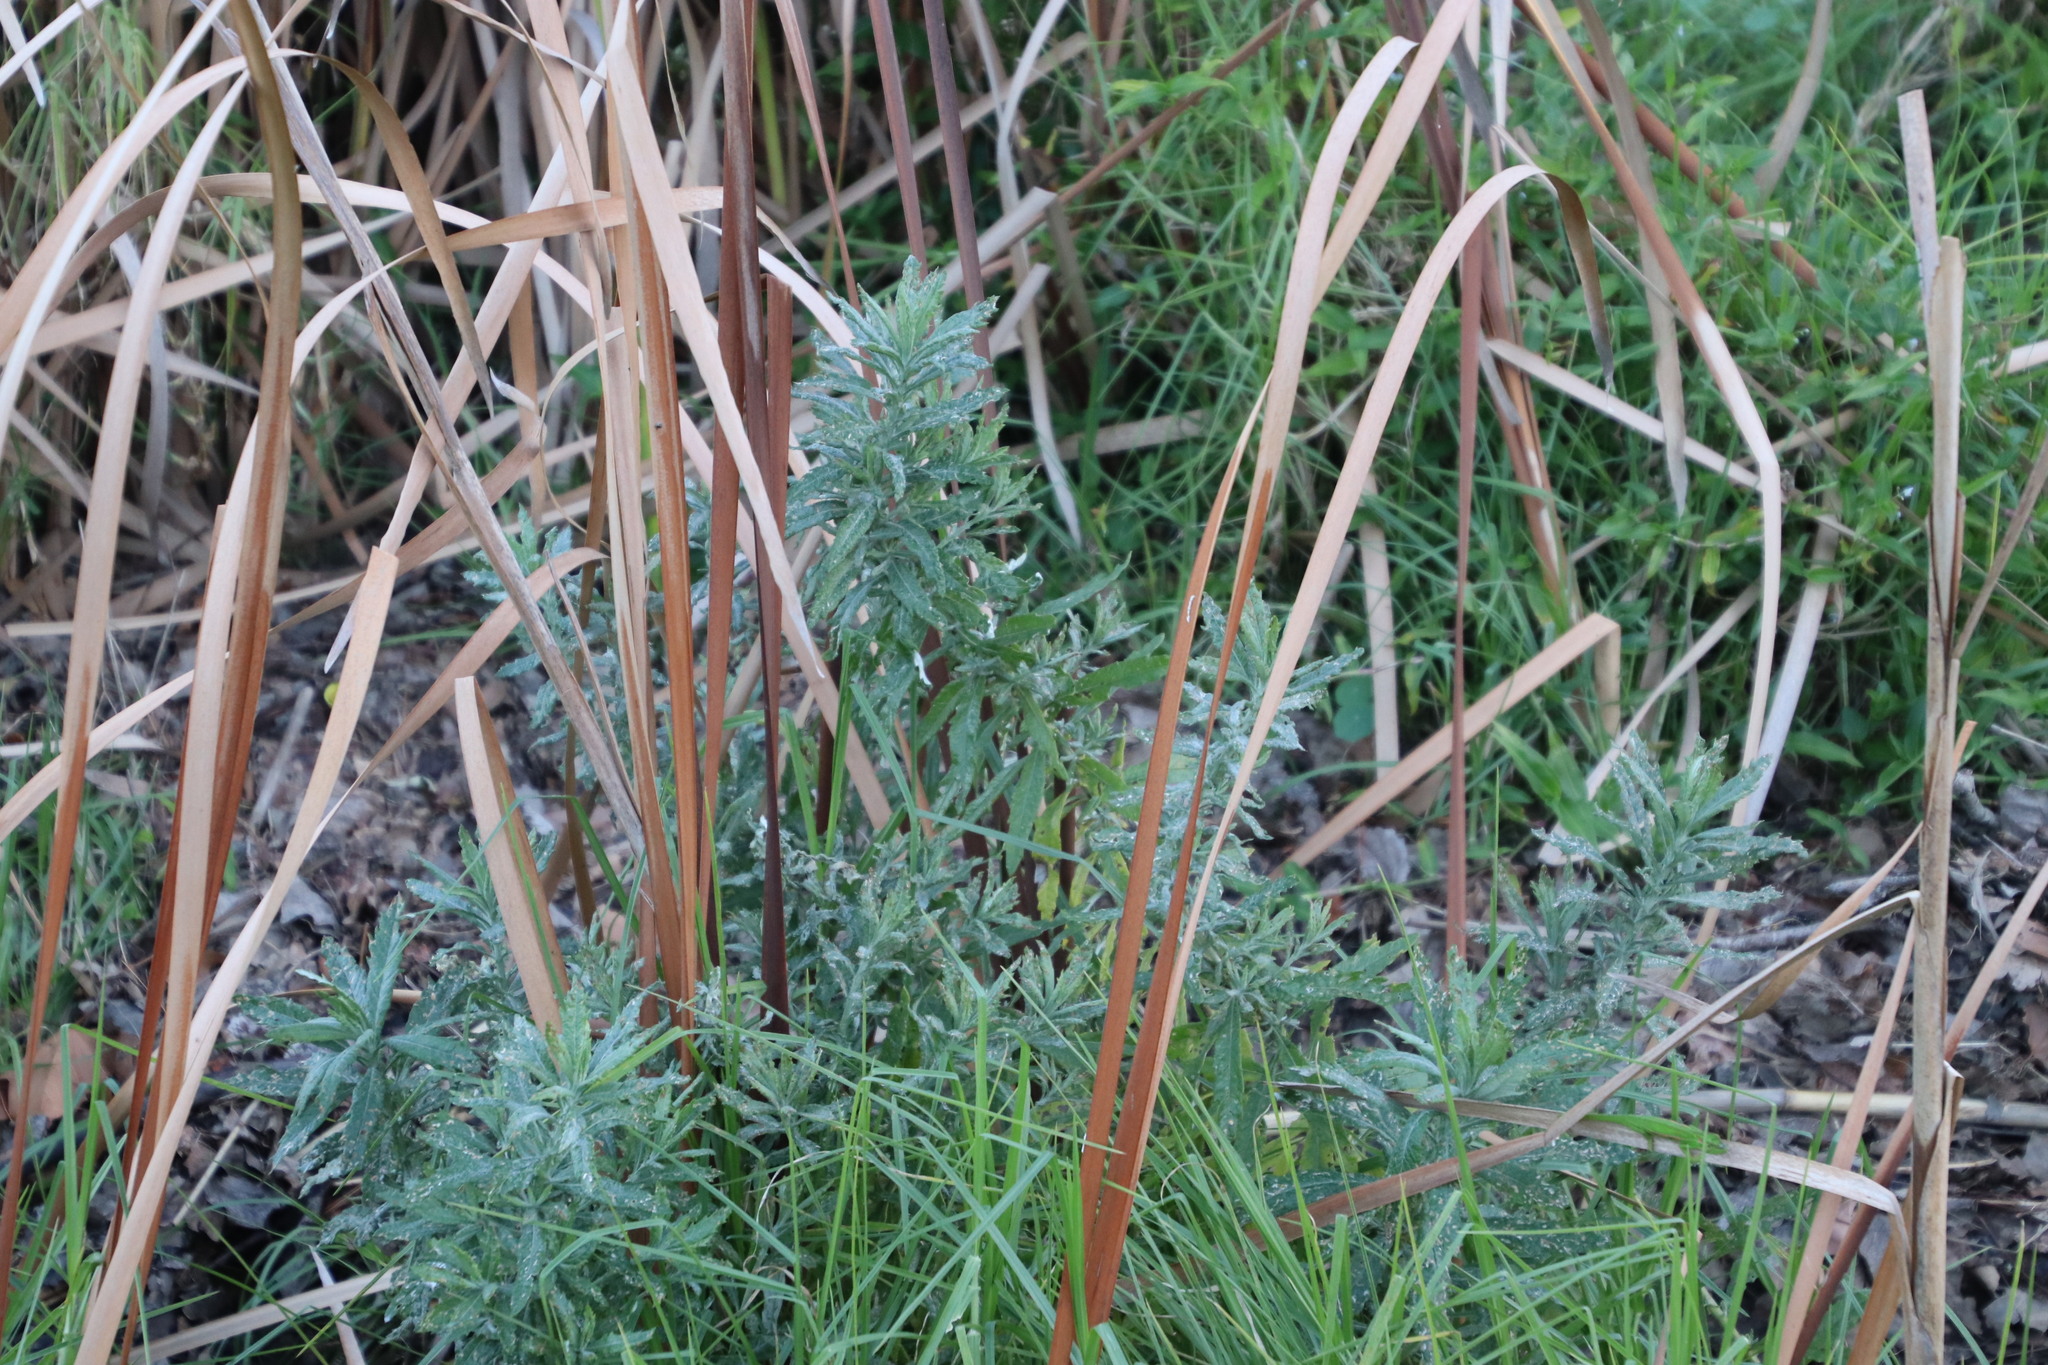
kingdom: Plantae
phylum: Tracheophyta
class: Magnoliopsida
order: Asterales
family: Asteraceae
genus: Senecio
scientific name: Senecio pterophorus
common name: Shoddy ragwort
